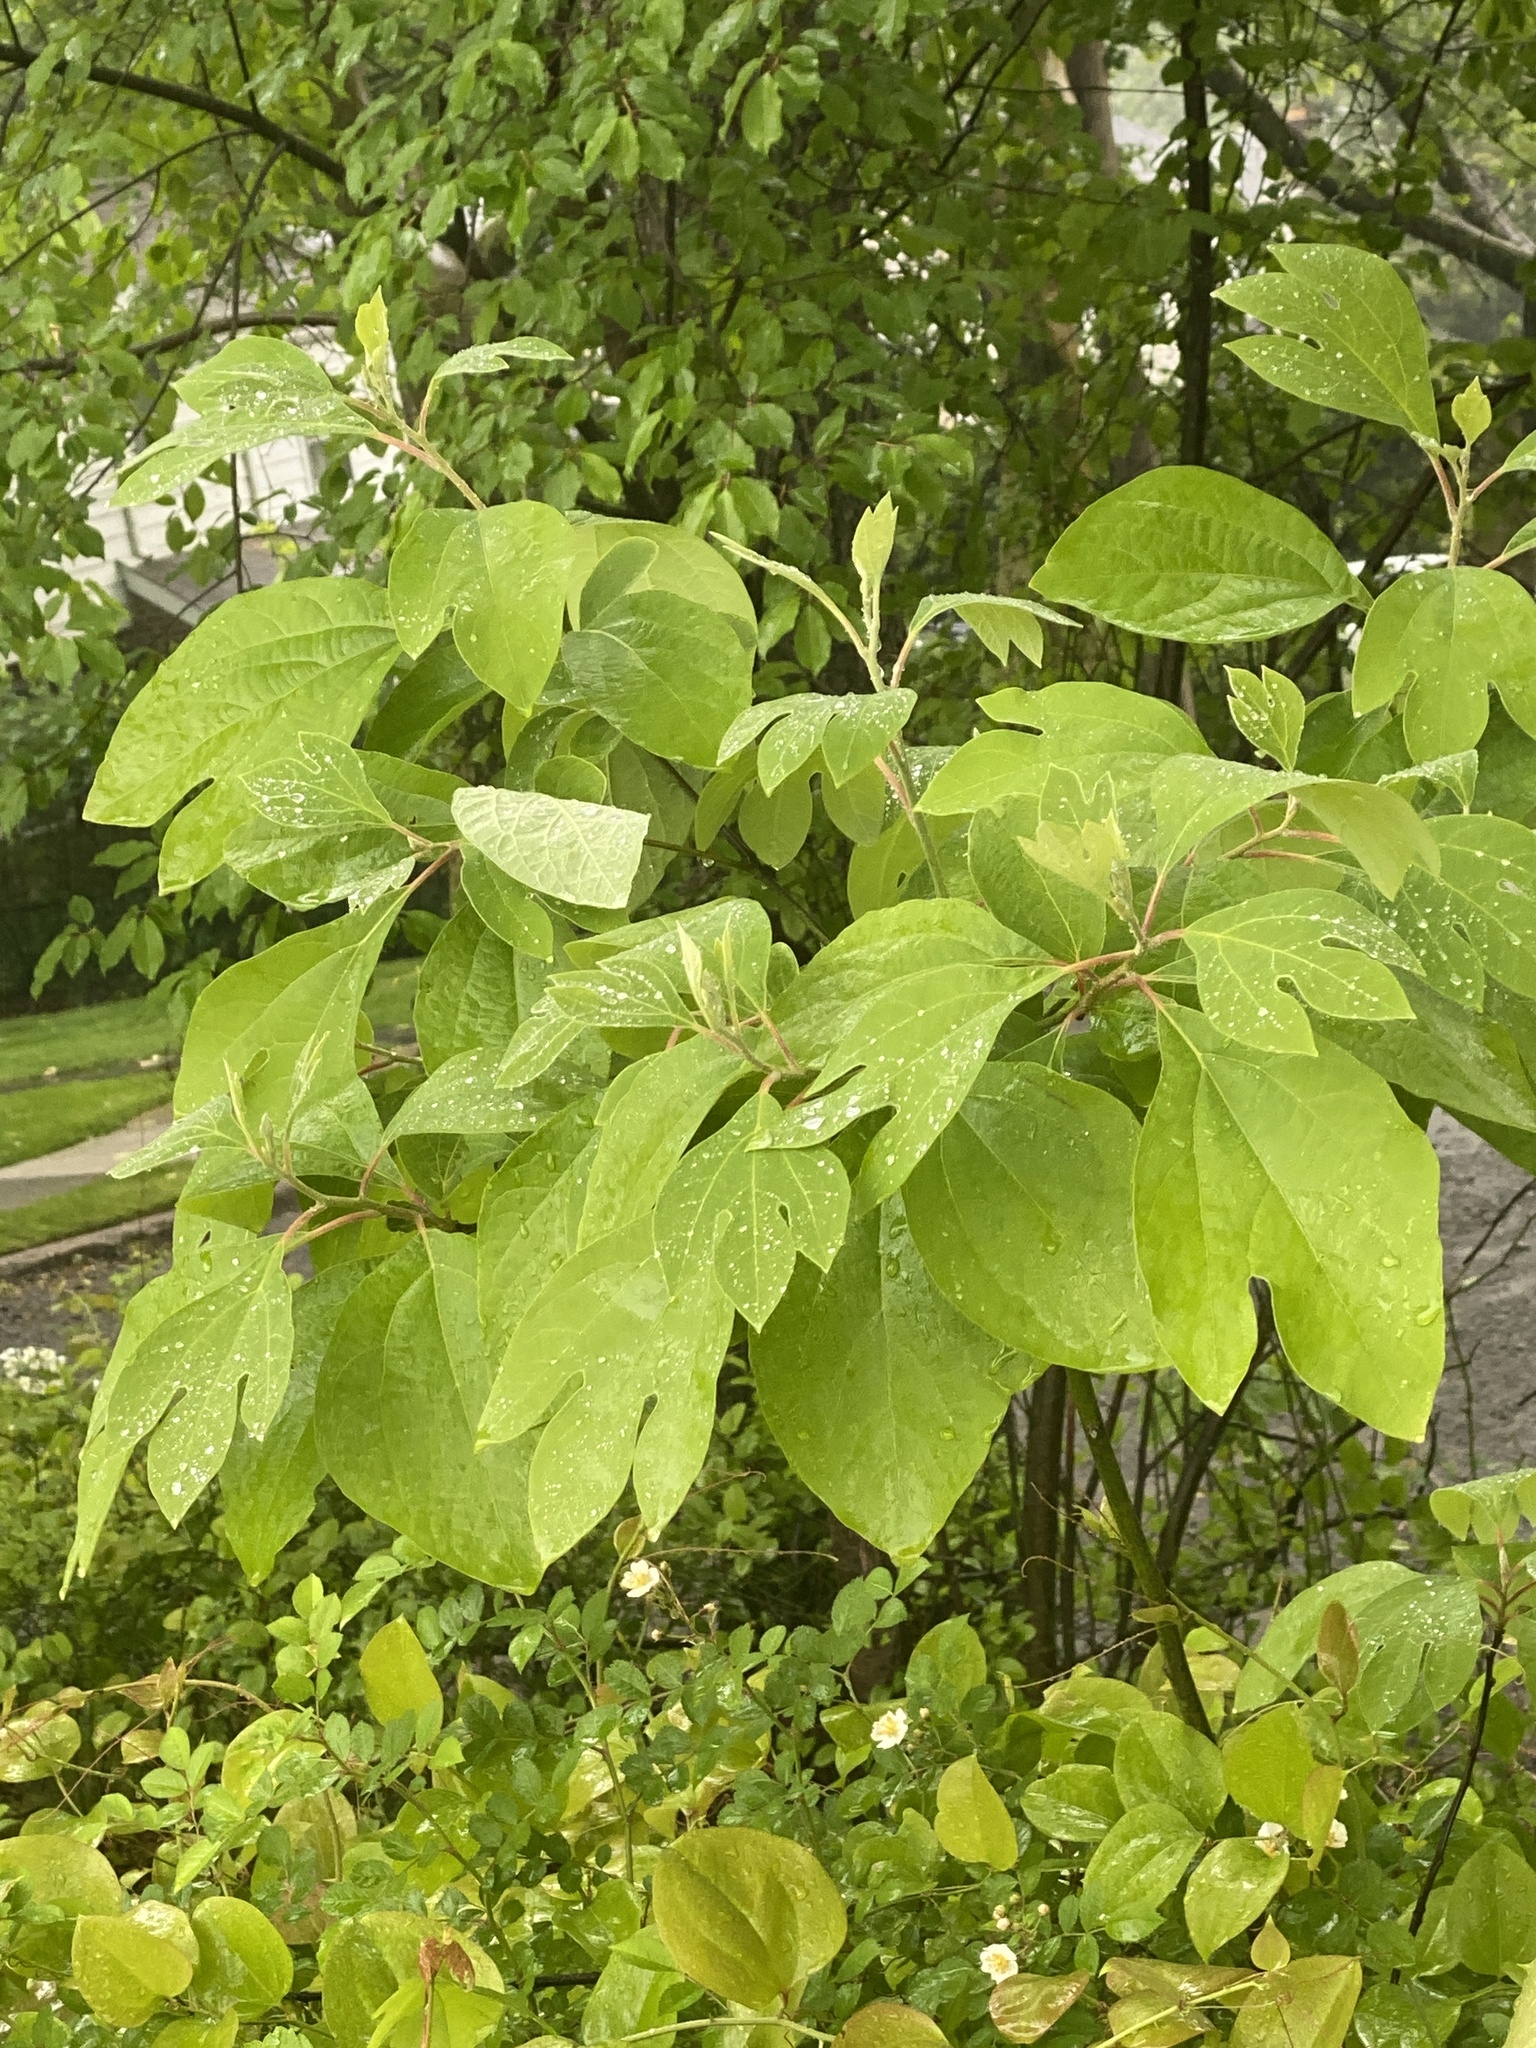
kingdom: Plantae
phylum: Tracheophyta
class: Magnoliopsida
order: Laurales
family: Lauraceae
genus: Sassafras
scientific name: Sassafras albidum
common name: Sassafras
